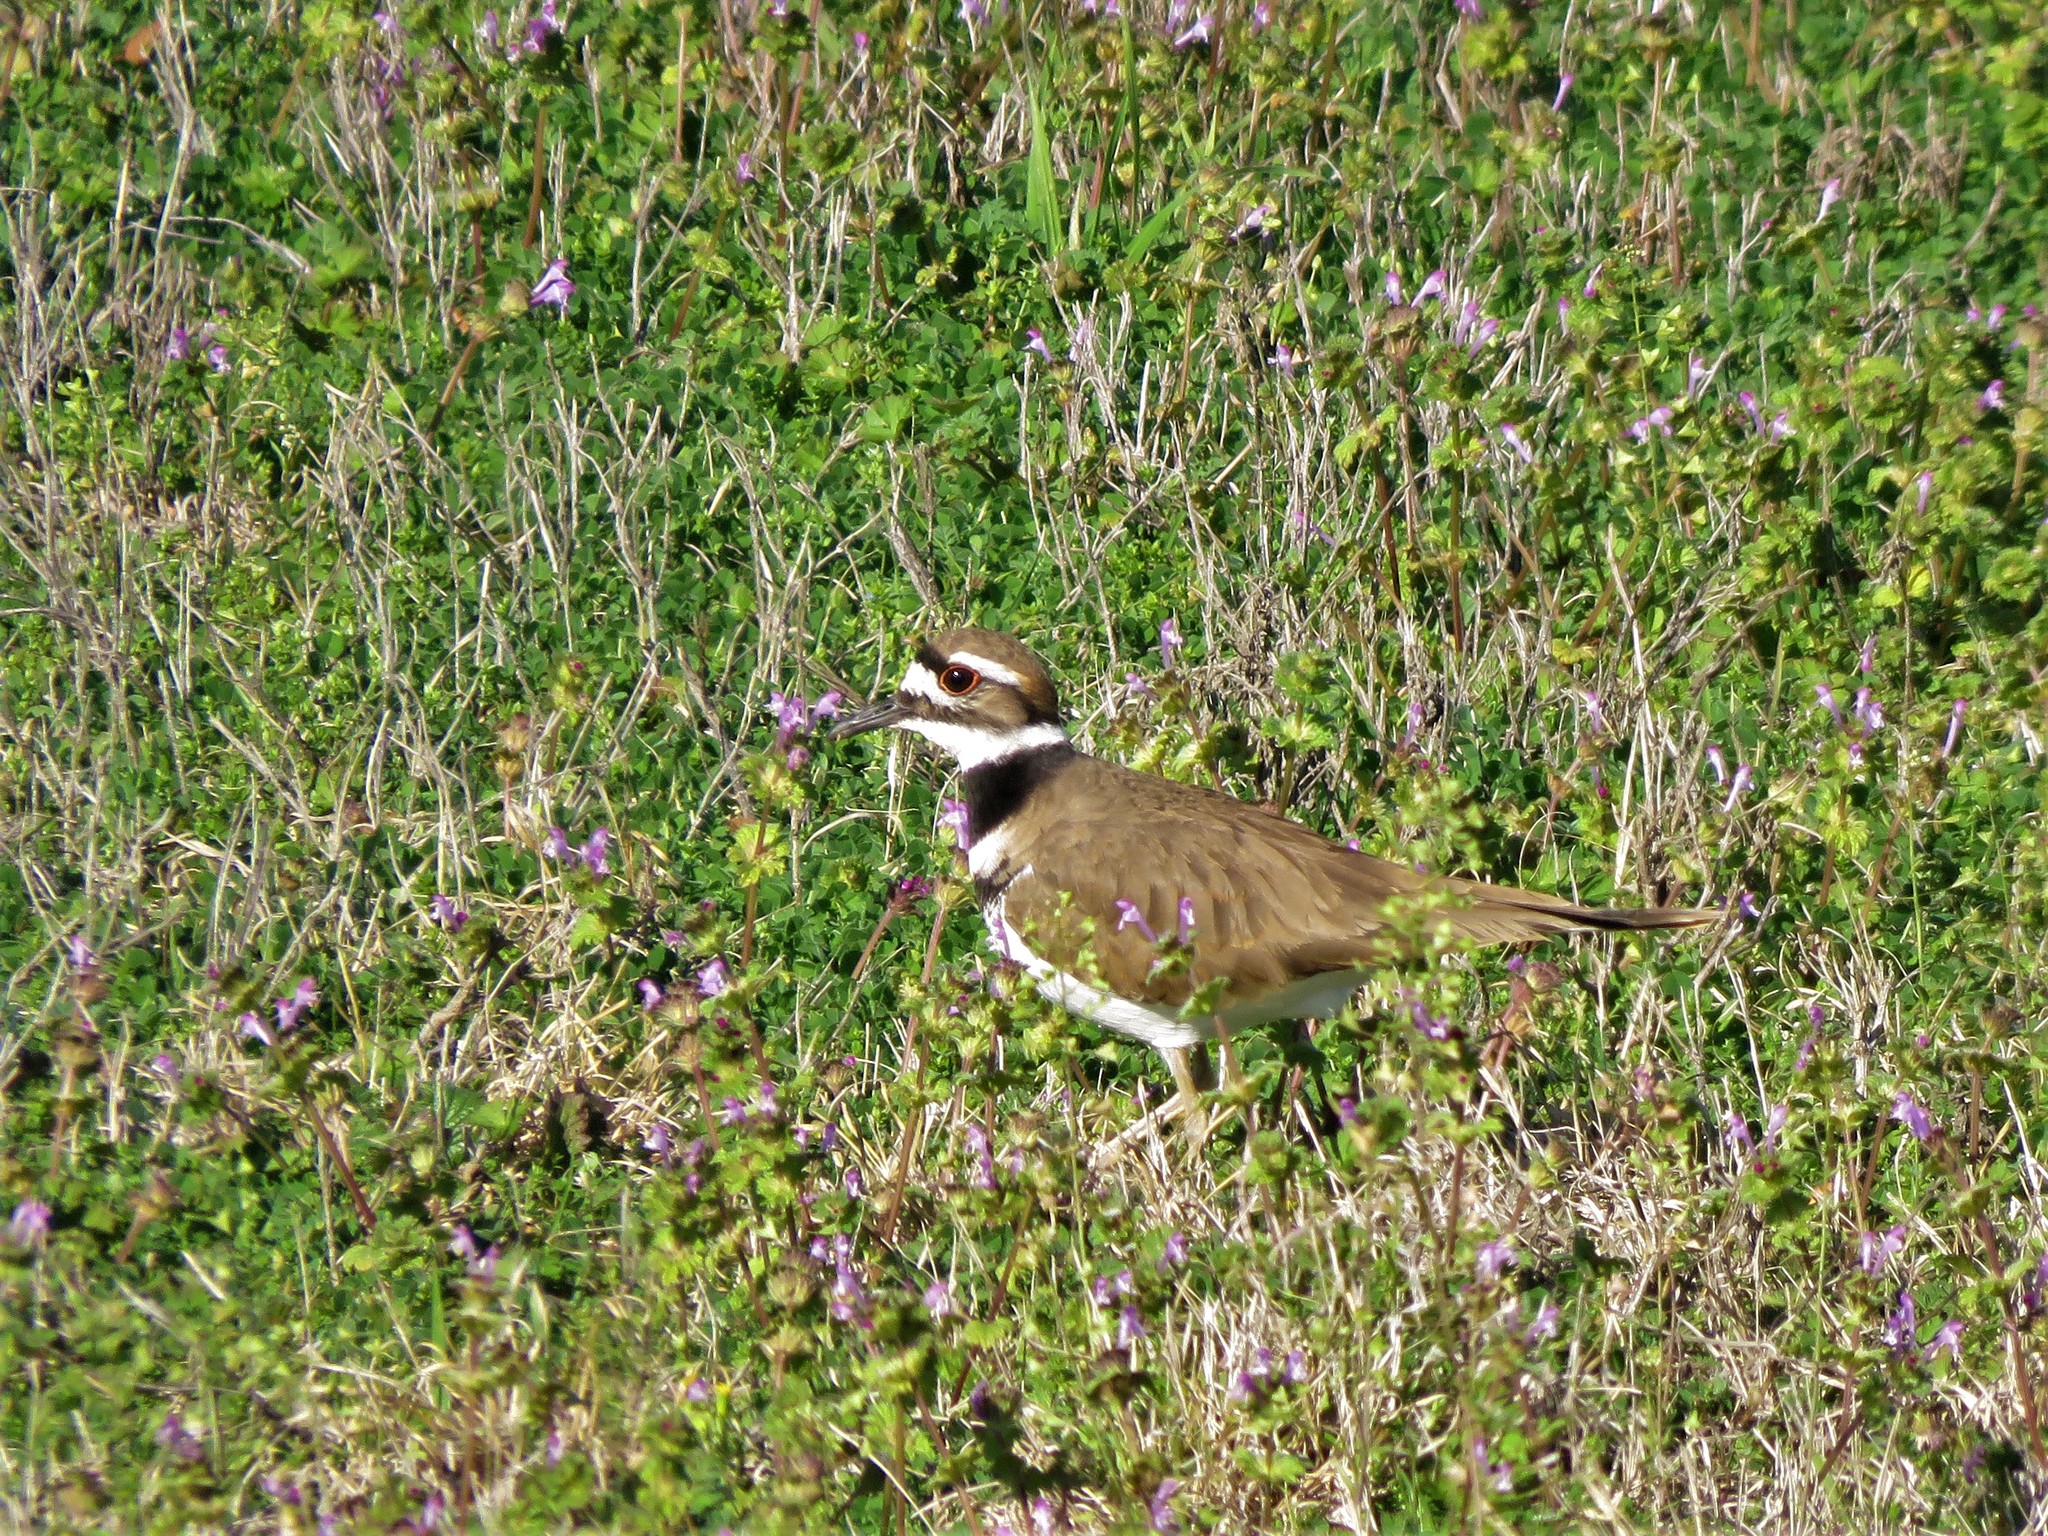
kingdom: Animalia
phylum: Chordata
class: Aves
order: Charadriiformes
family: Charadriidae
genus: Charadrius
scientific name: Charadrius vociferus
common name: Killdeer
